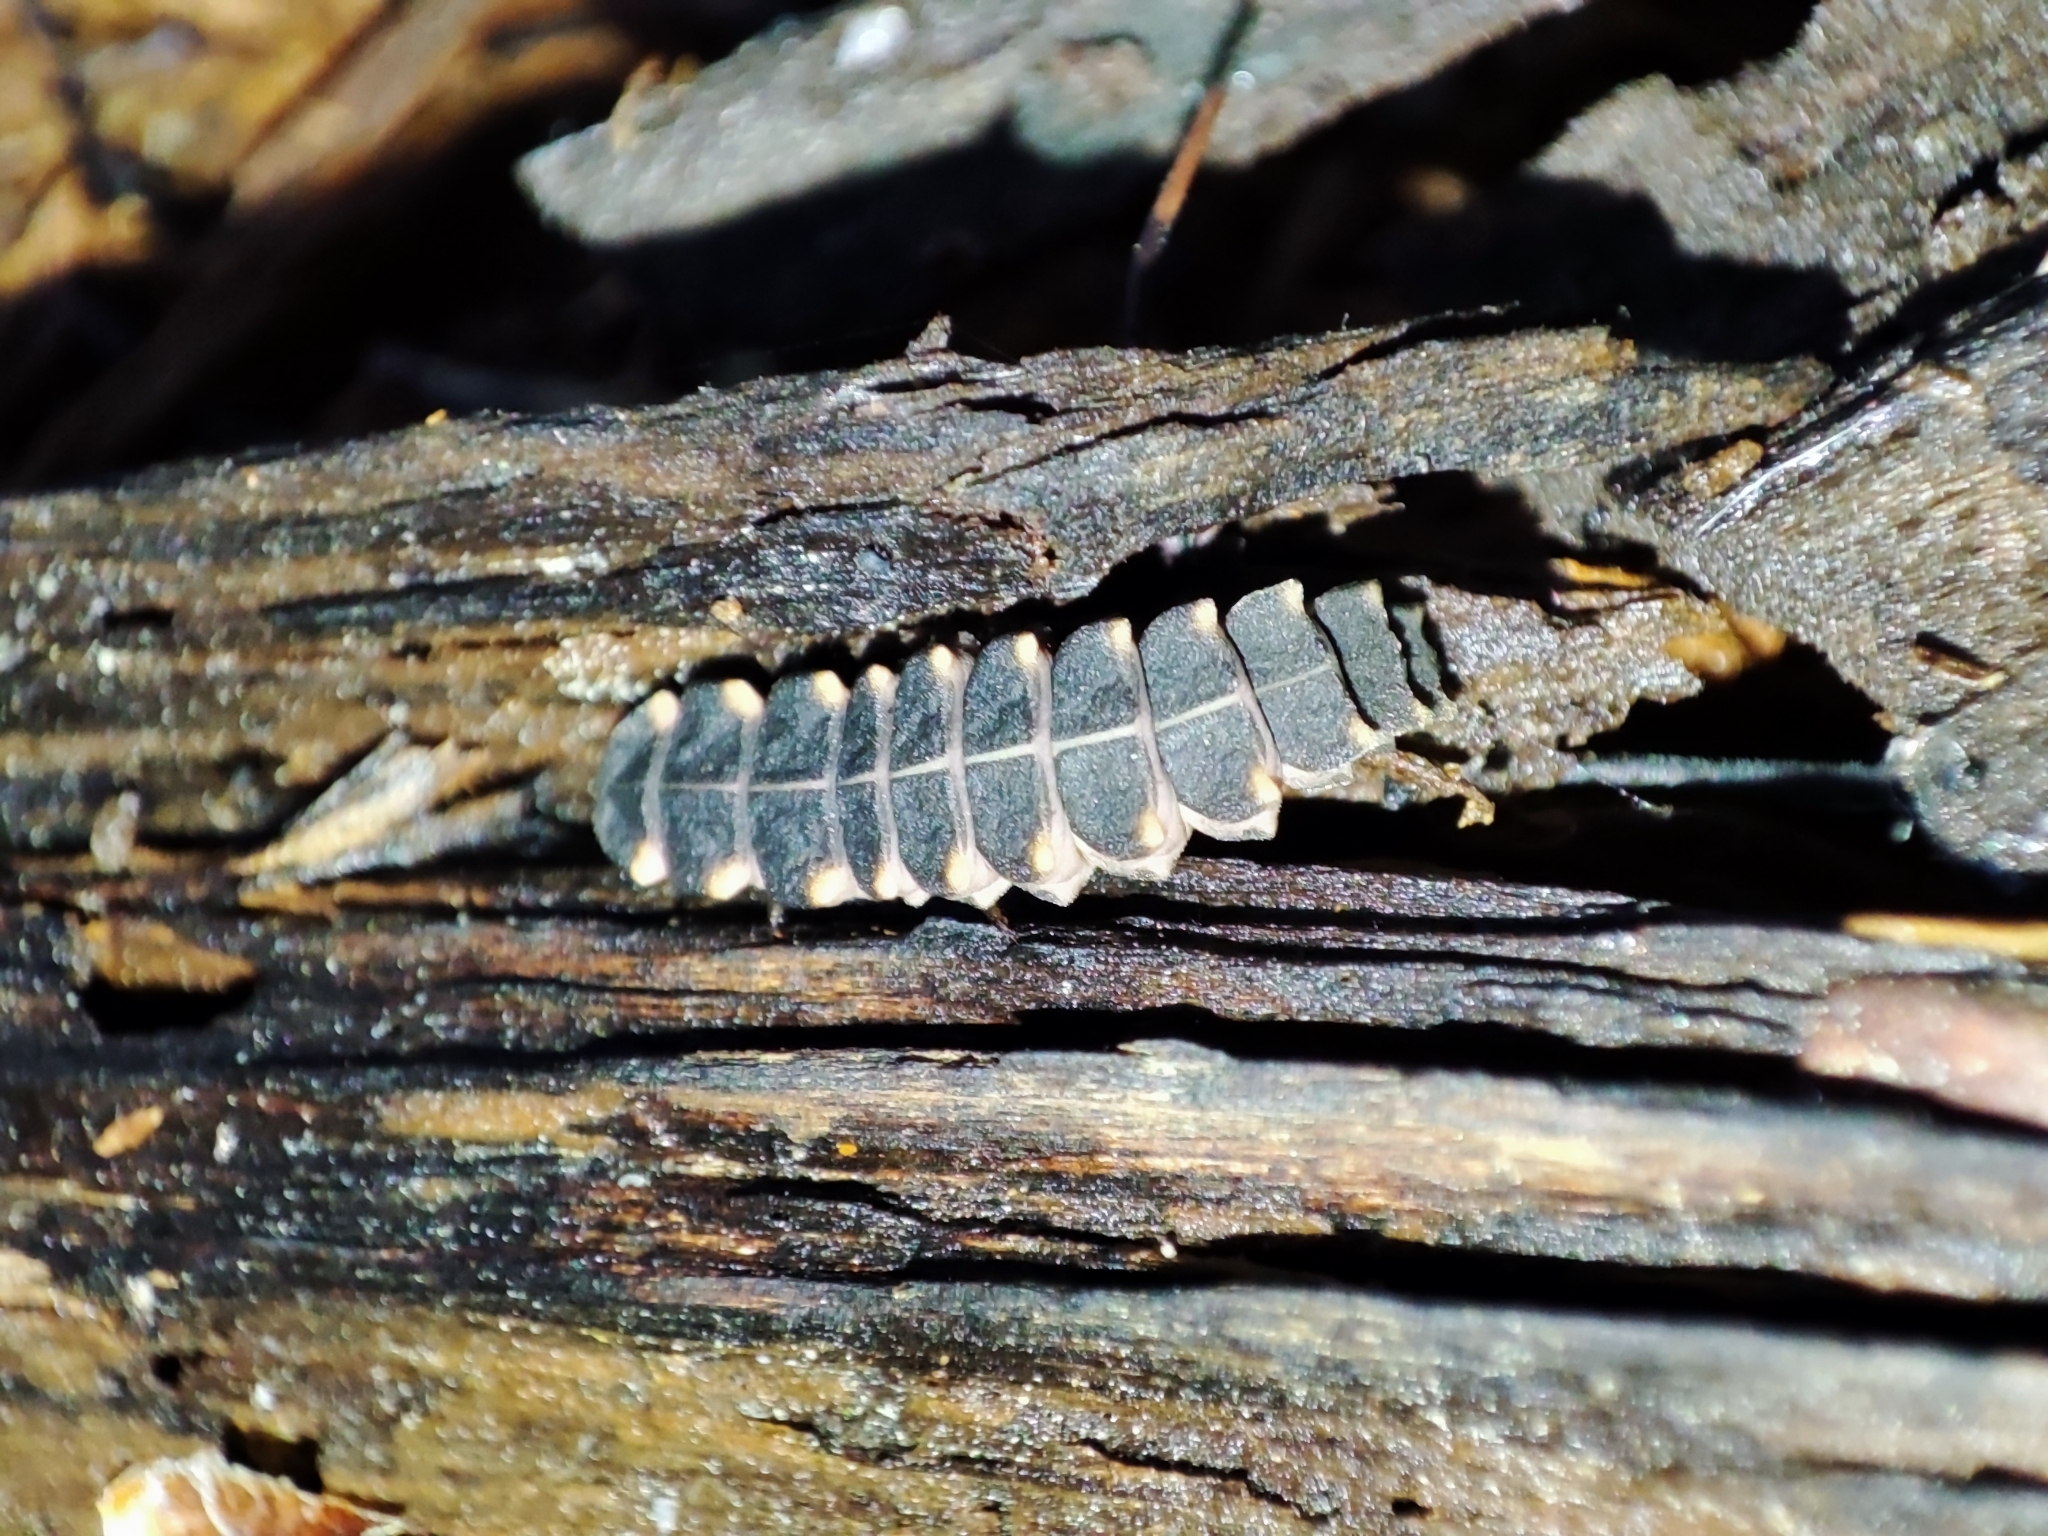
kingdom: Animalia
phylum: Arthropoda
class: Insecta
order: Coleoptera
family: Lampyridae
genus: Lampyris
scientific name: Lampyris noctiluca
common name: Glow-worm
